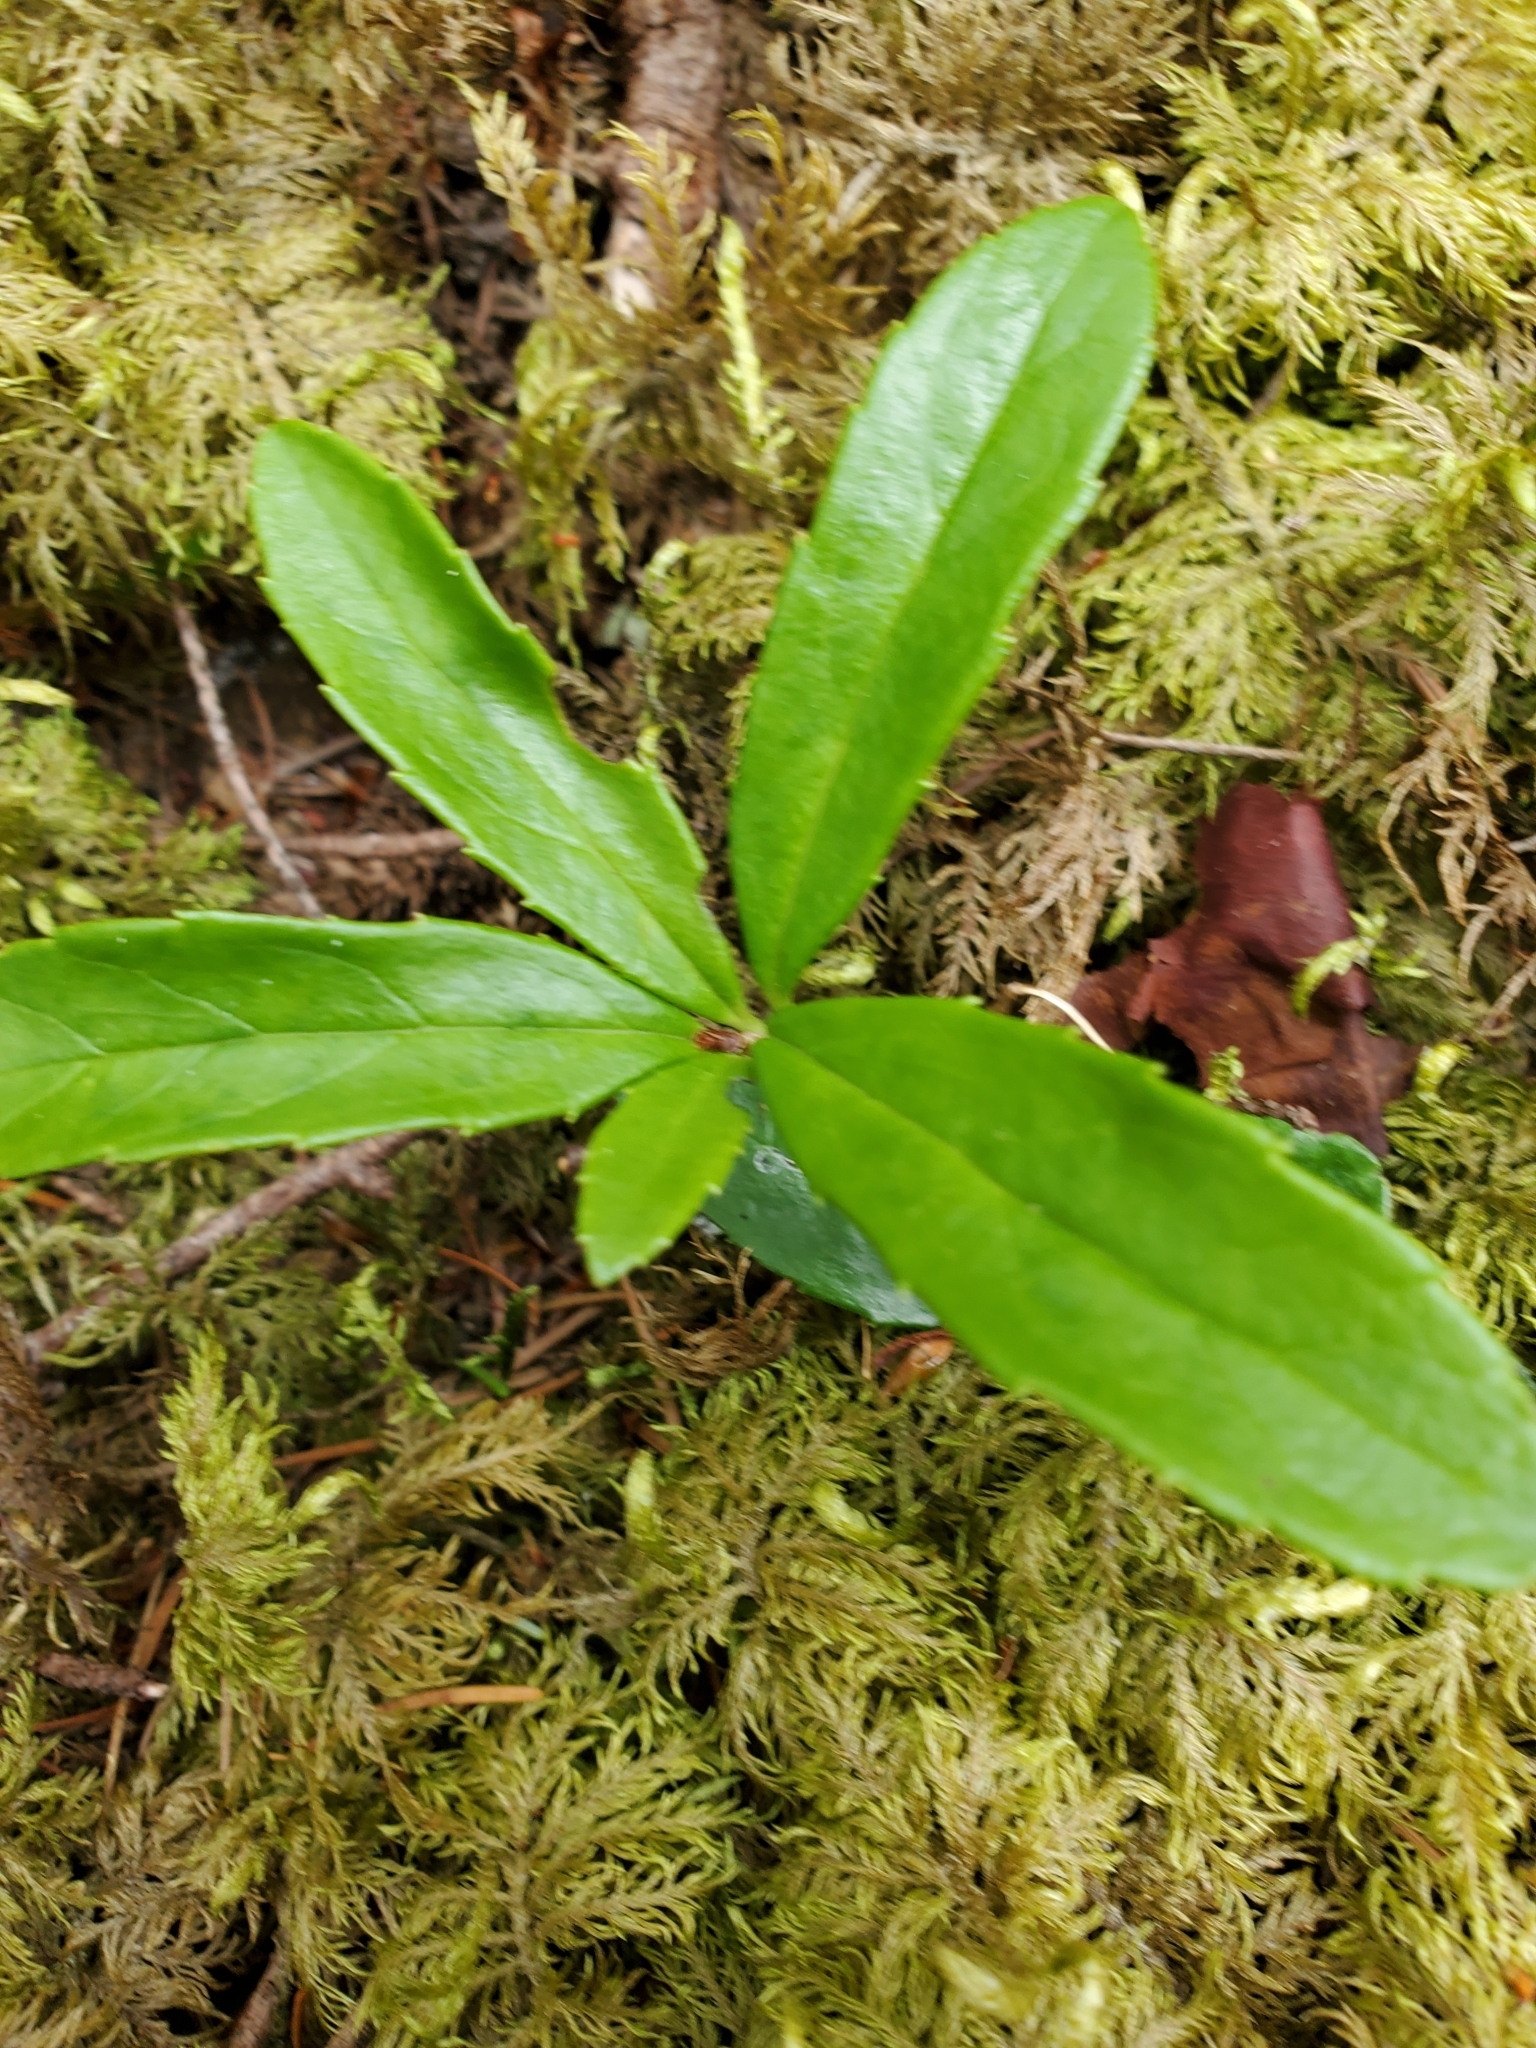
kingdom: Plantae
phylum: Tracheophyta
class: Magnoliopsida
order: Ericales
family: Ericaceae
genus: Chimaphila
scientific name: Chimaphila umbellata
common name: Pipsissewa
